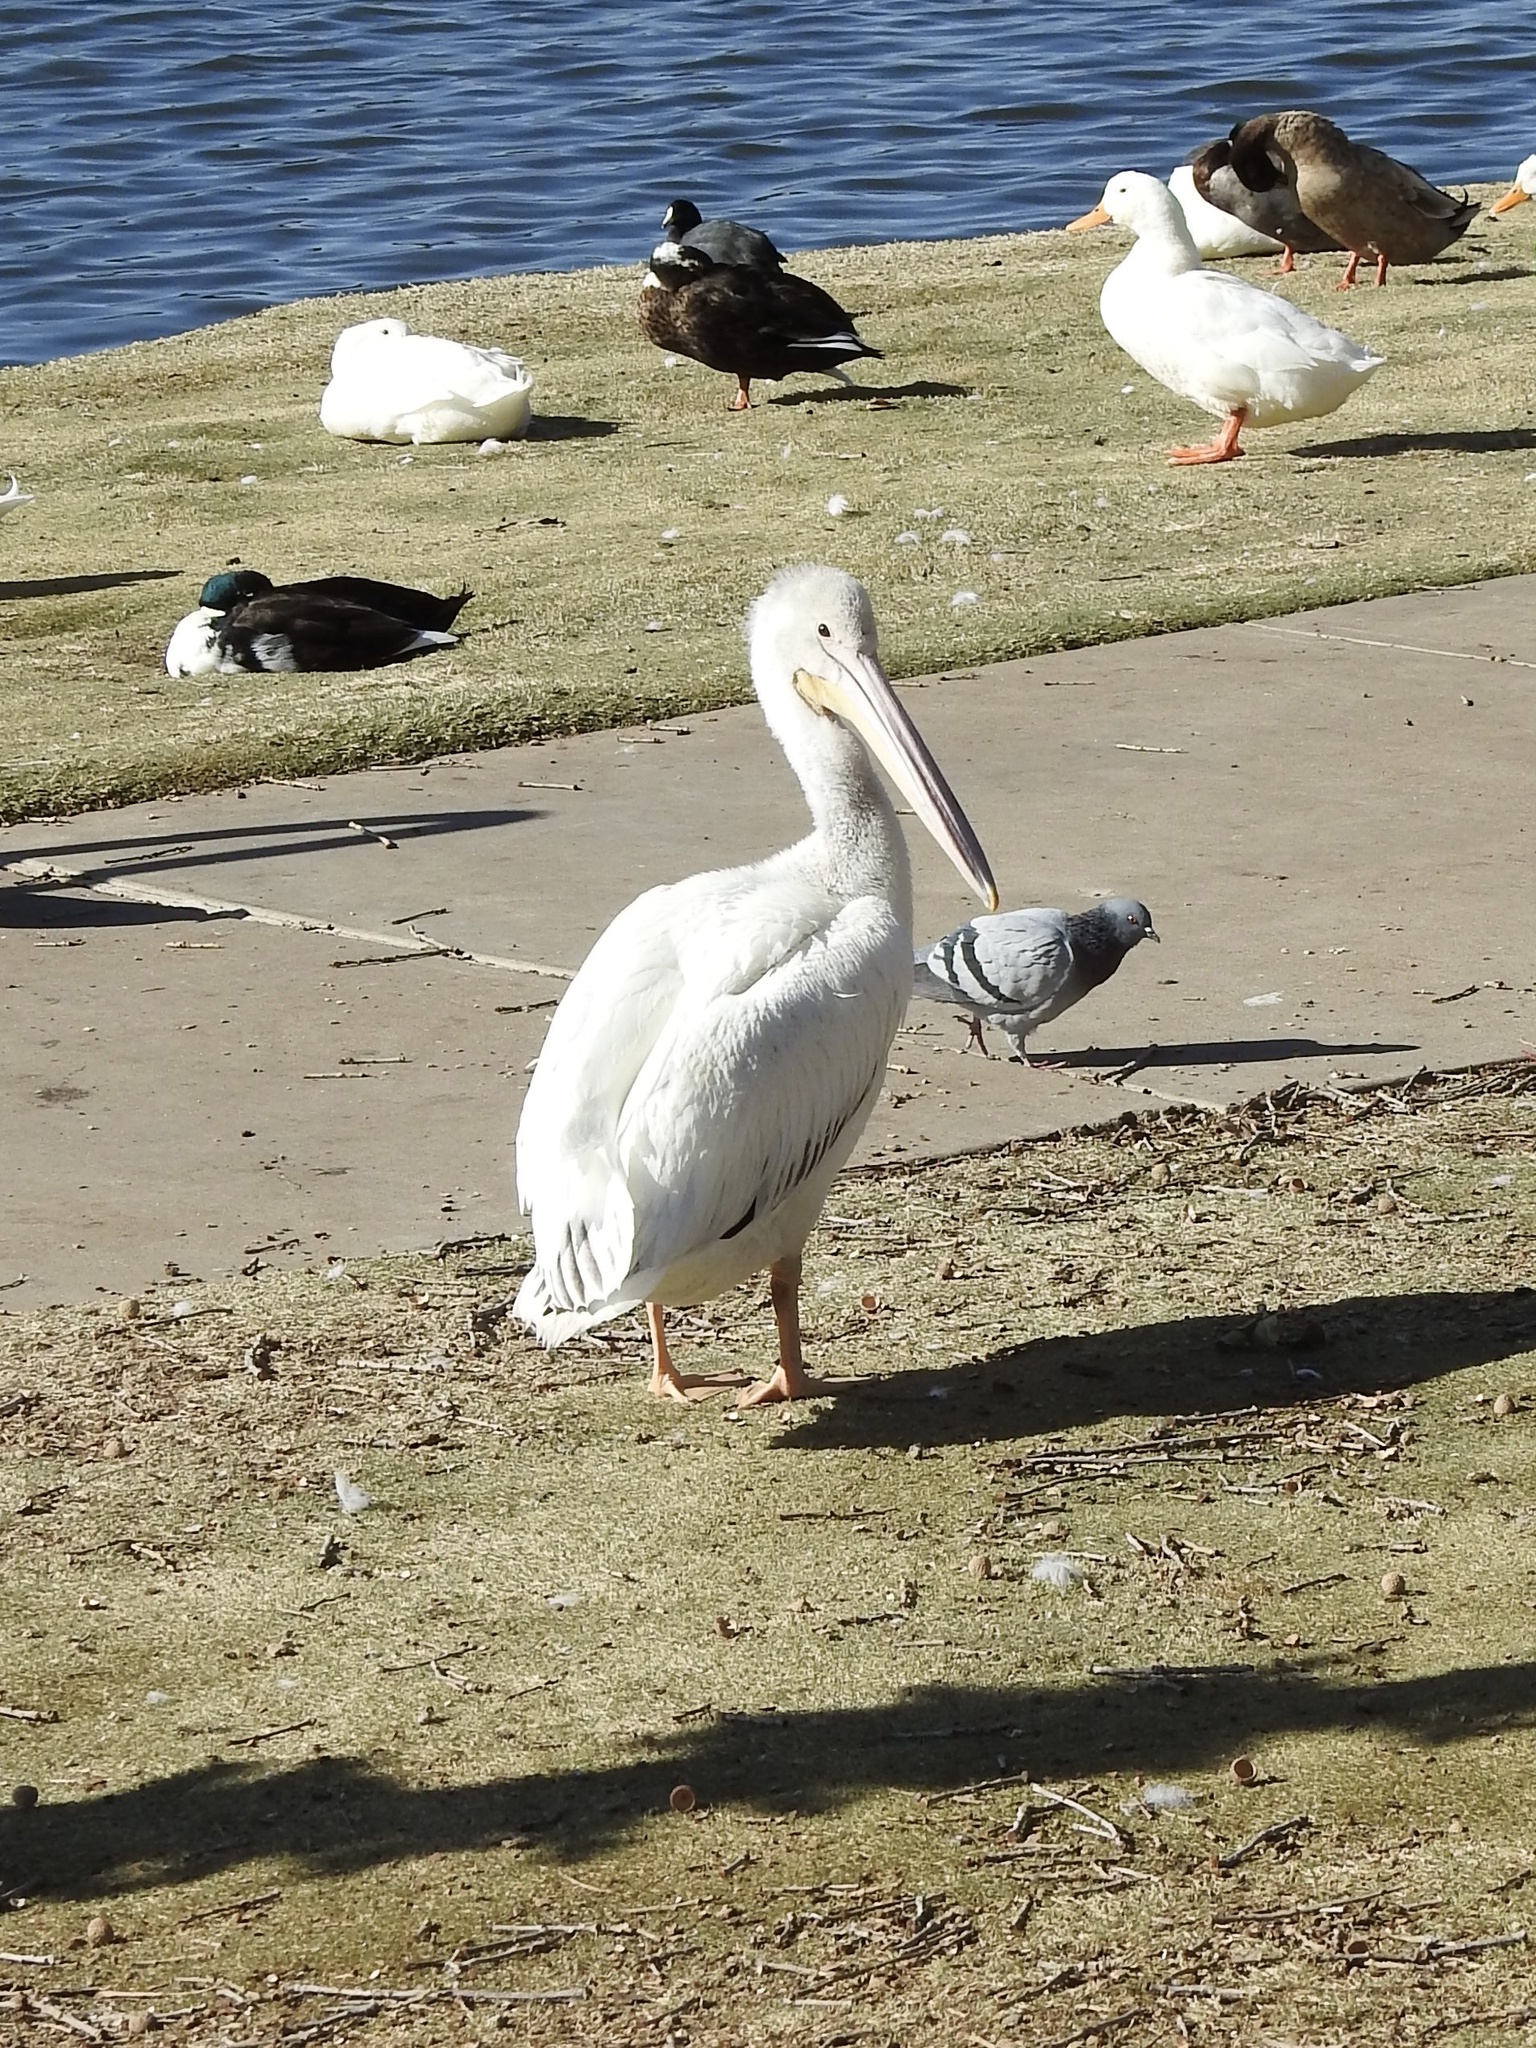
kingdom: Animalia
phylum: Chordata
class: Aves
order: Pelecaniformes
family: Pelecanidae
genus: Pelecanus
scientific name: Pelecanus erythrorhynchos
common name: American white pelican
